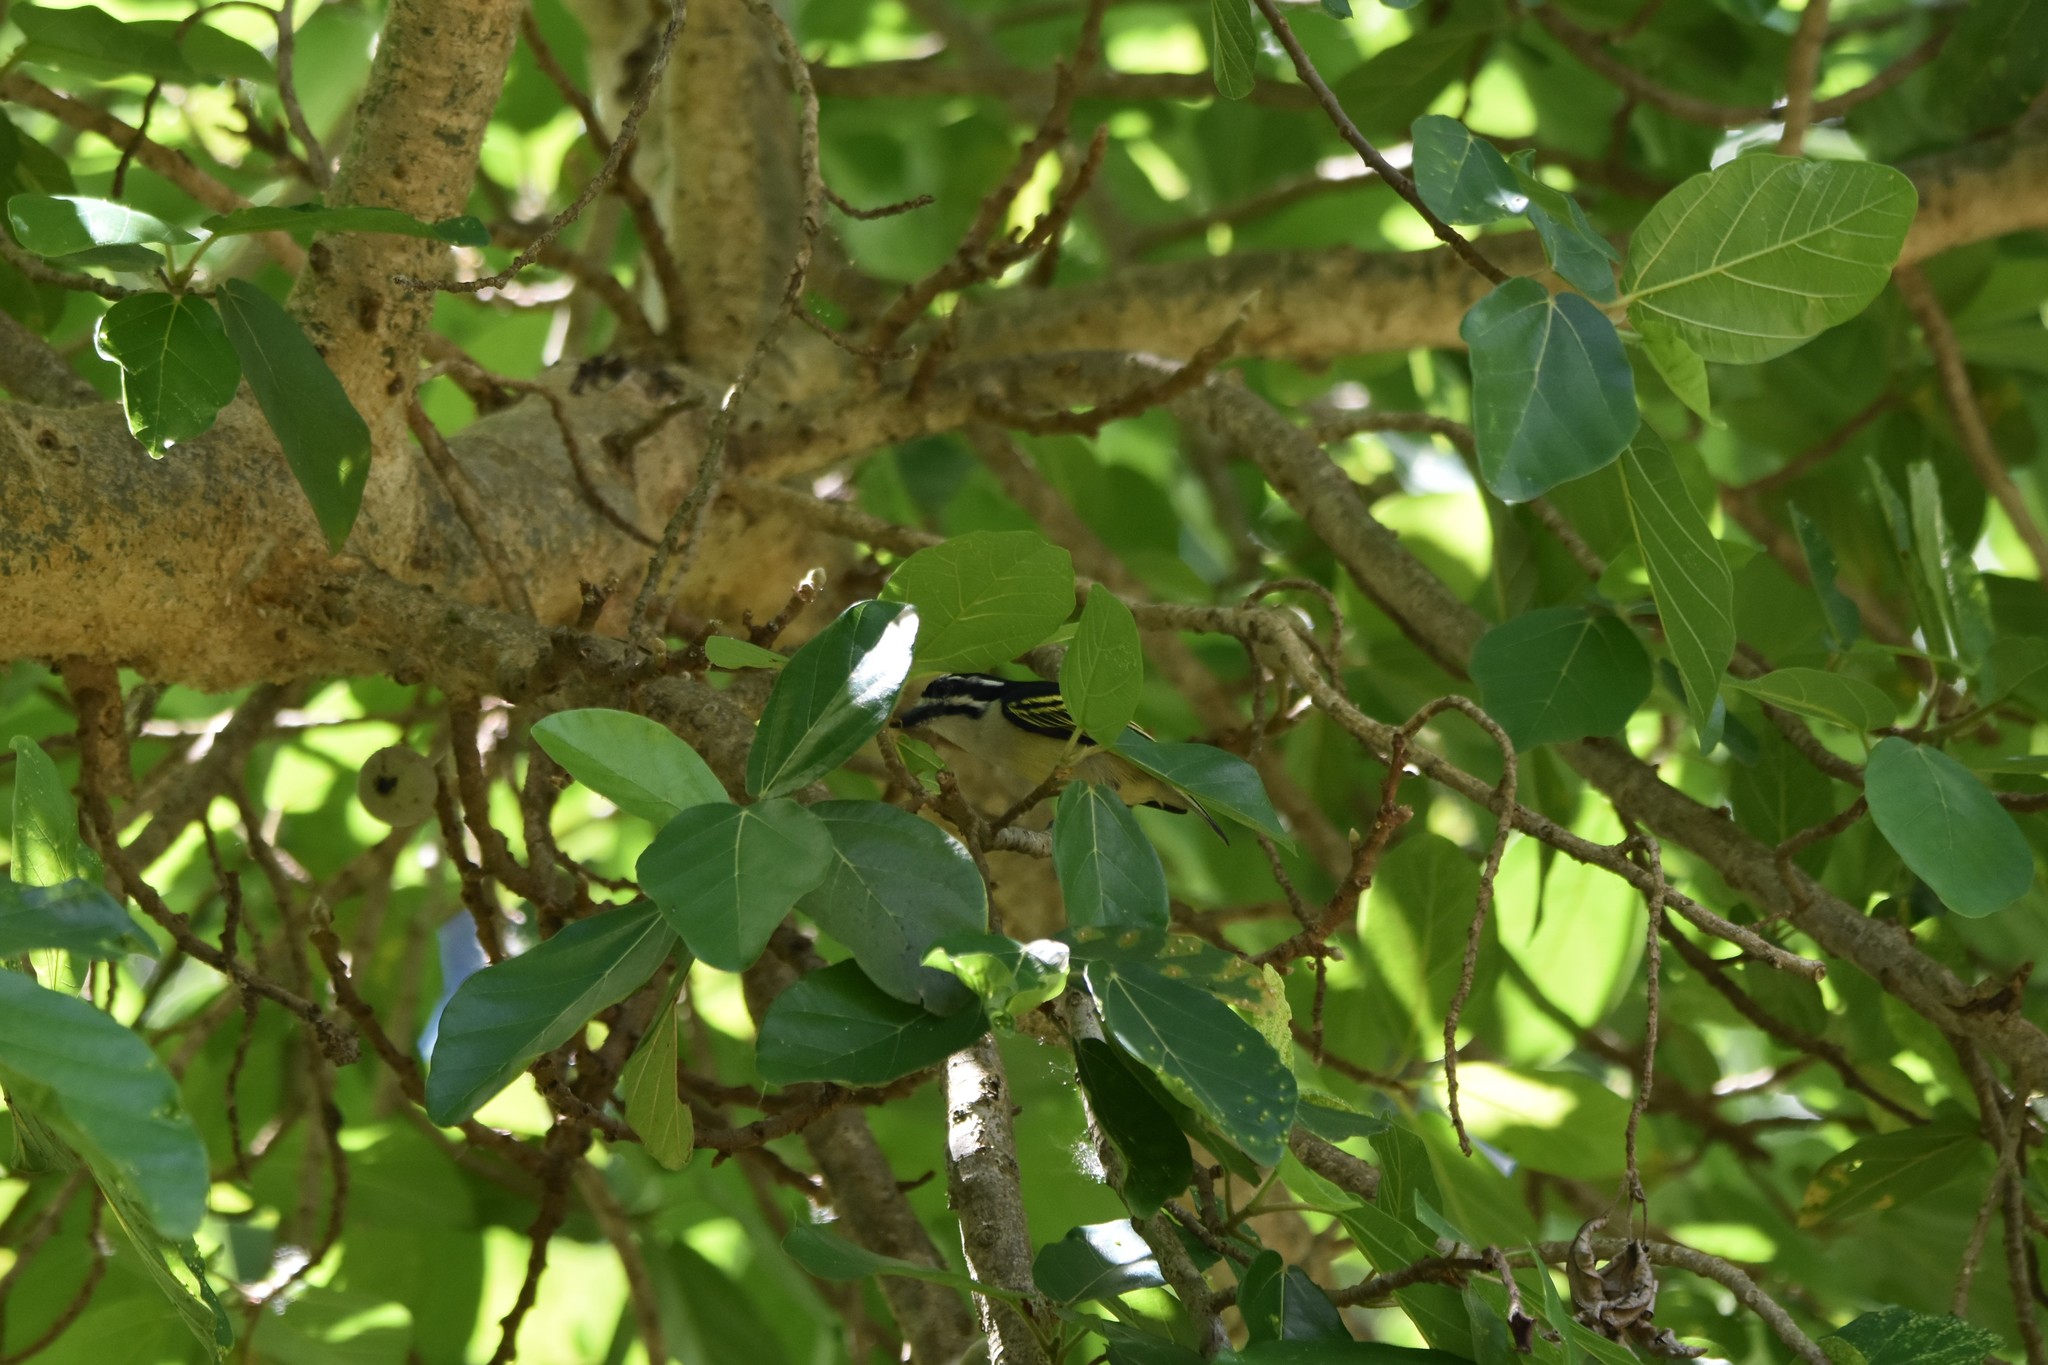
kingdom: Animalia
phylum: Chordata
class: Aves
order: Piciformes
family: Lybiidae
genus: Pogoniulus
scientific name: Pogoniulus bilineatus
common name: Yellow-rumped tinkerbird
